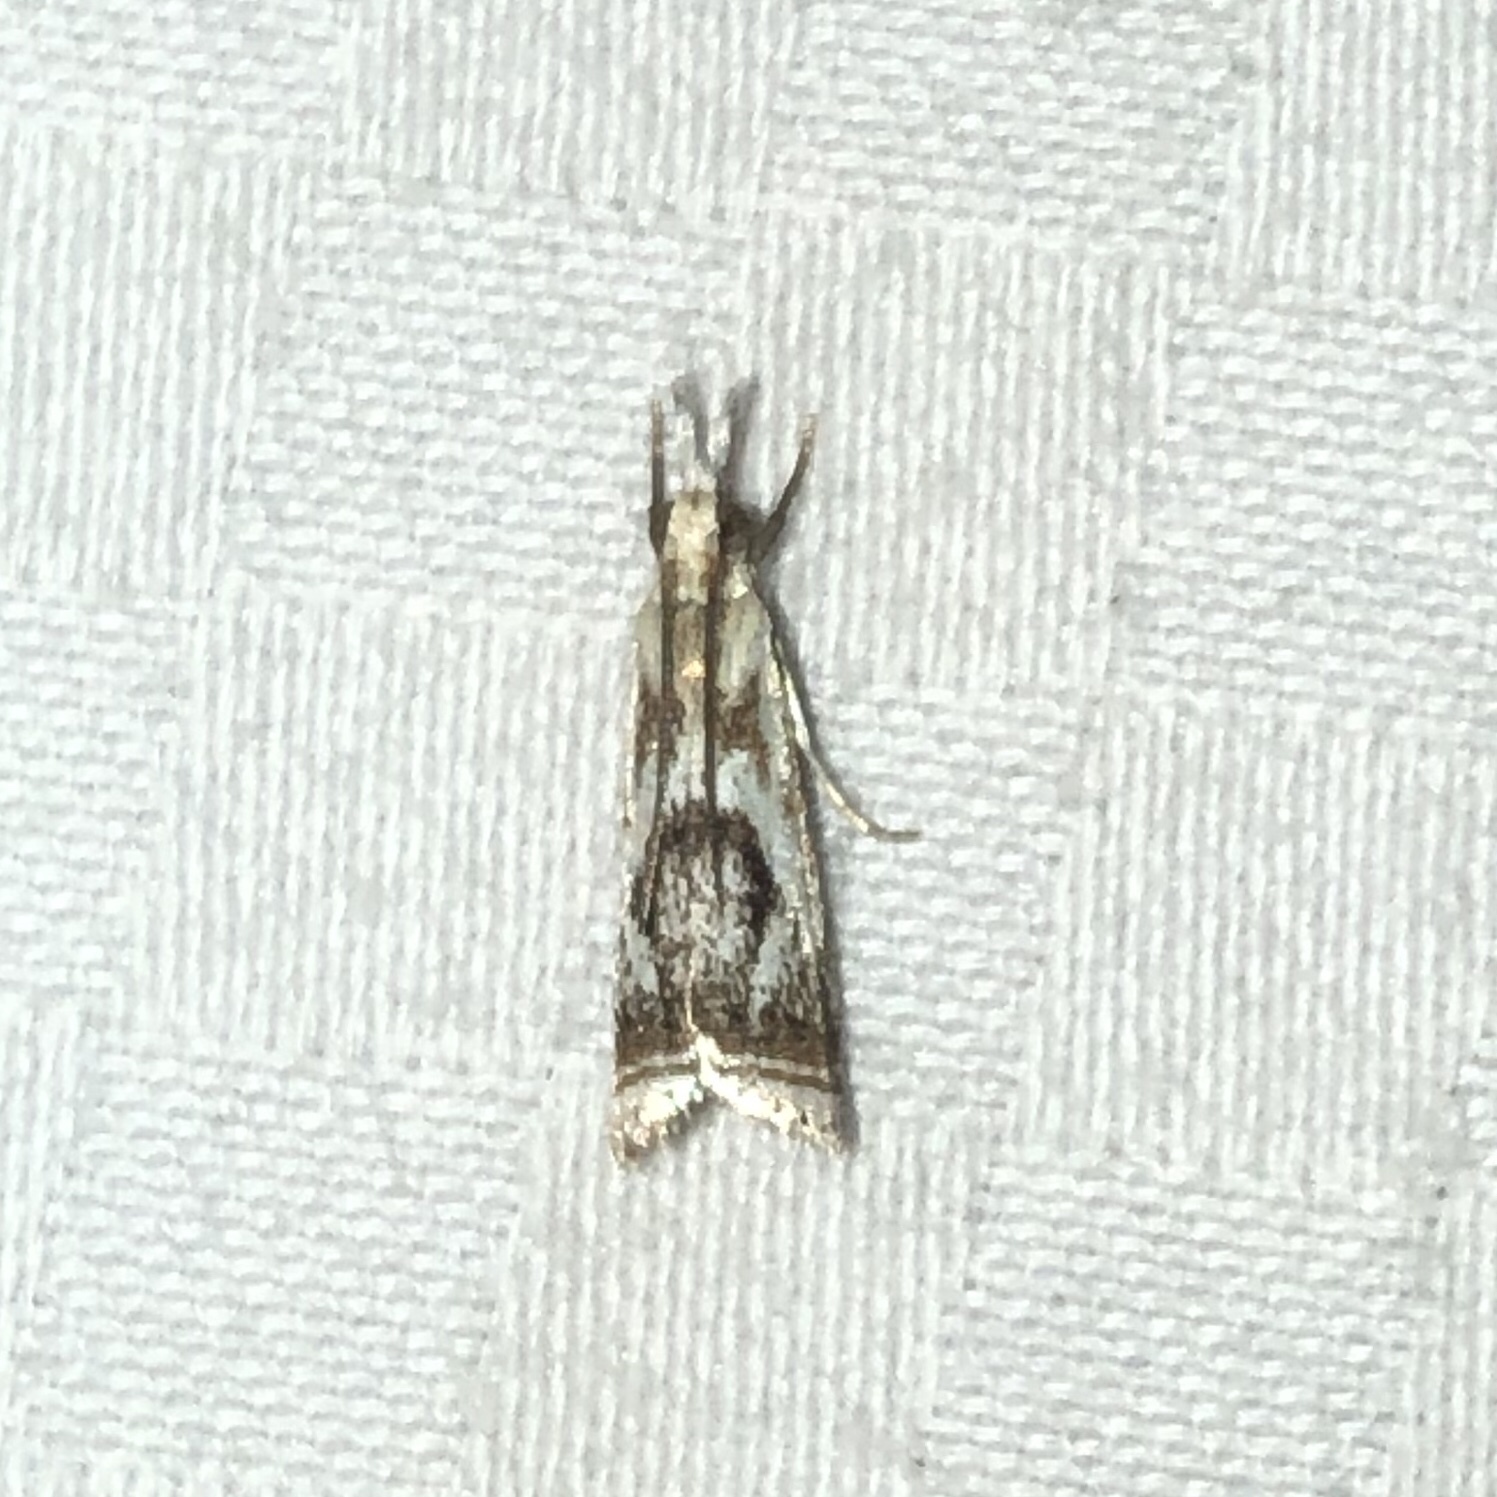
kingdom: Animalia
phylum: Arthropoda
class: Insecta
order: Lepidoptera
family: Crambidae
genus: Microcrambus
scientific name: Microcrambus elegans
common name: Elegant grass-veneer
